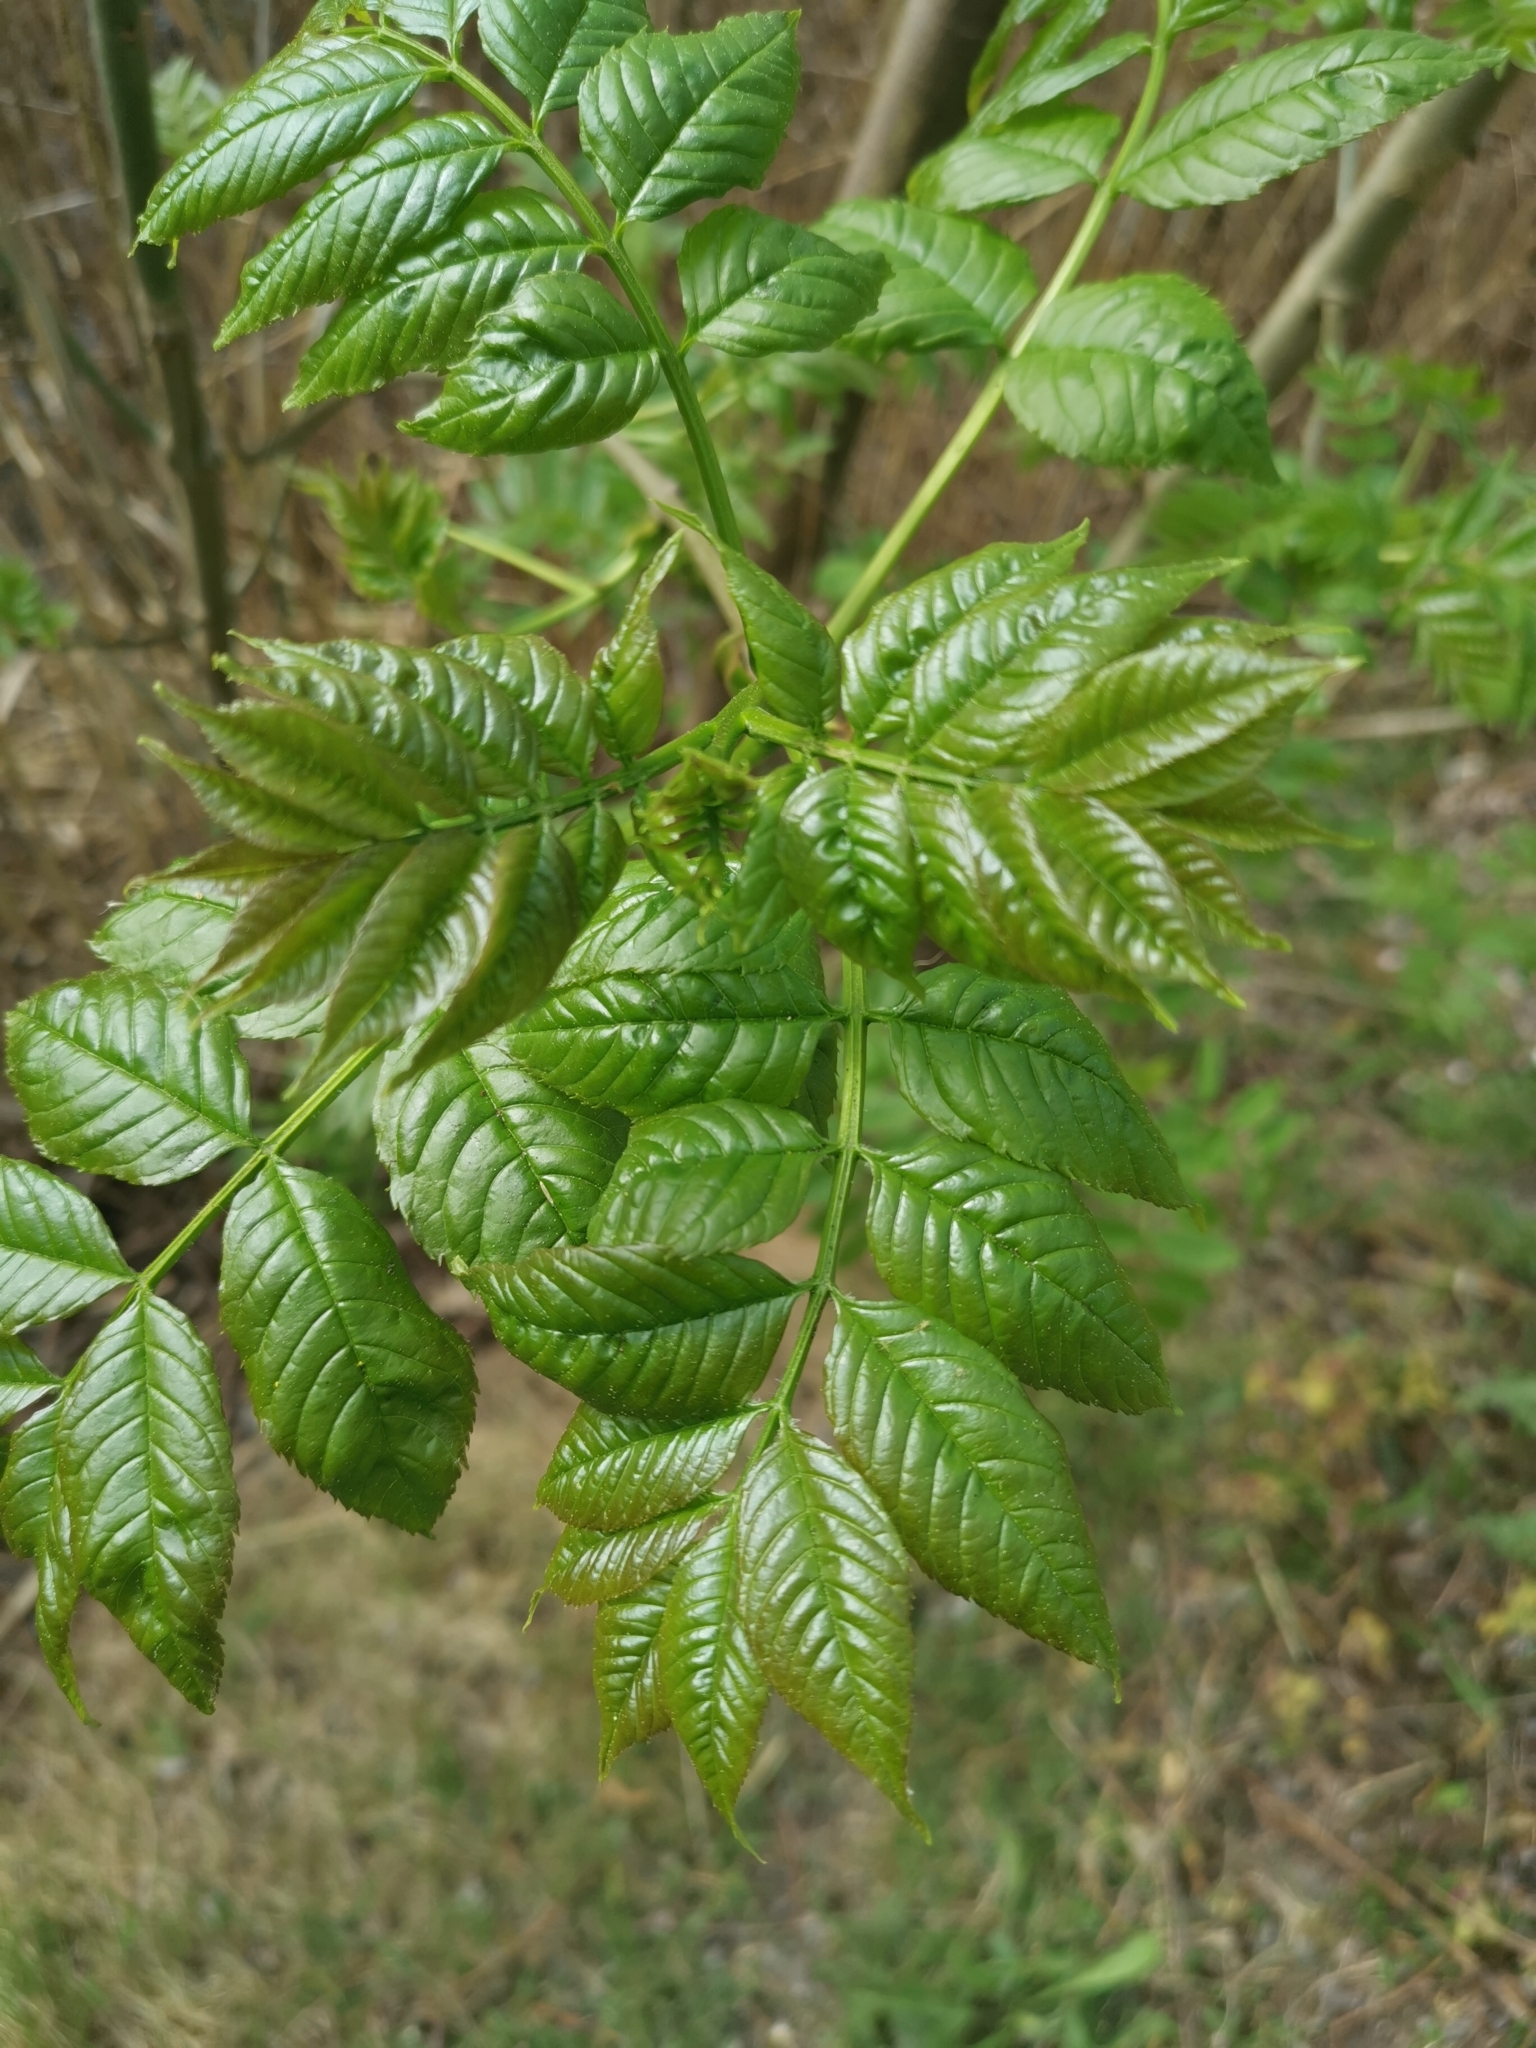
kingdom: Plantae
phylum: Tracheophyta
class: Magnoliopsida
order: Lamiales
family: Oleaceae
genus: Fraxinus
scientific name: Fraxinus excelsior
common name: European ash
